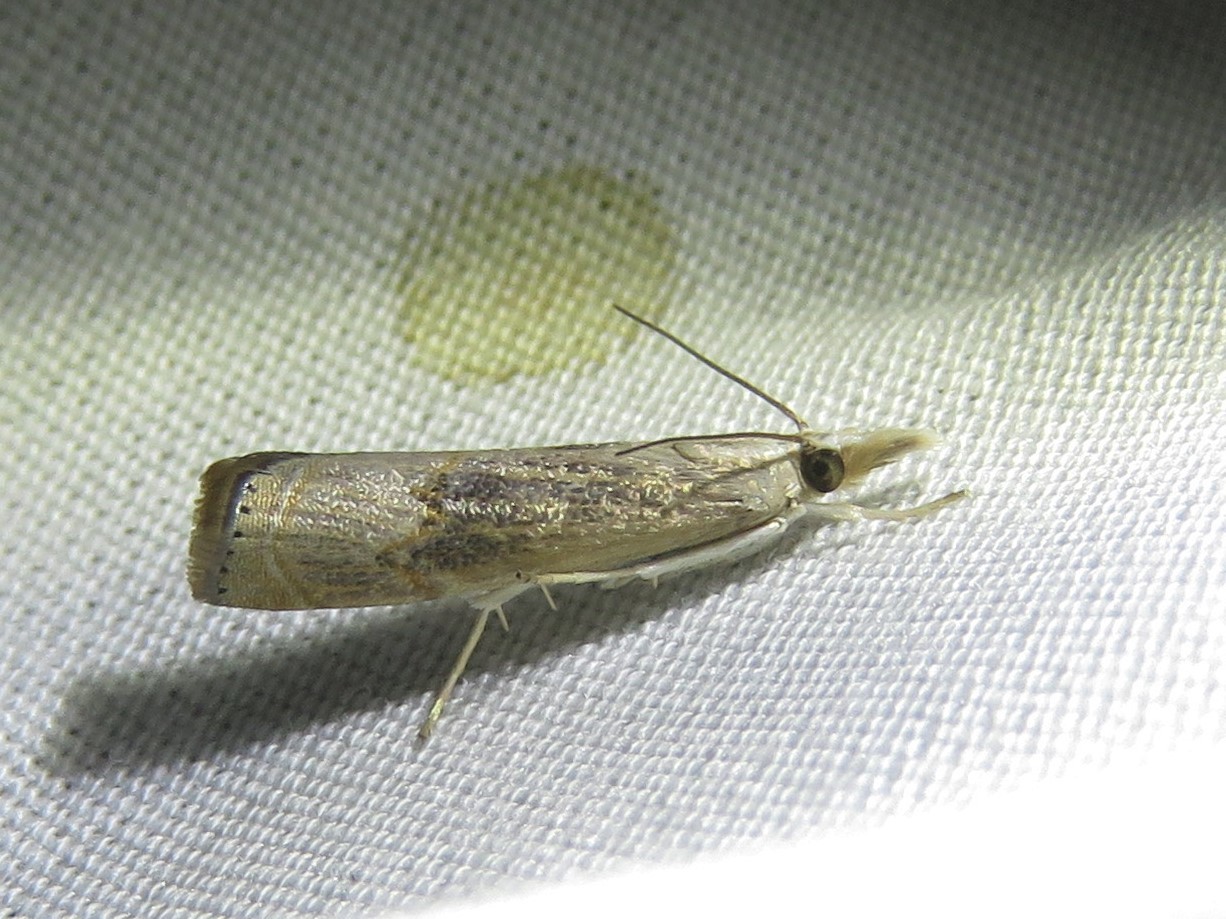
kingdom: Animalia
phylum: Arthropoda
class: Insecta
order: Lepidoptera
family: Crambidae
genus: Parapediasia
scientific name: Parapediasia teterellus
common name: Bluegrass webworm moth
